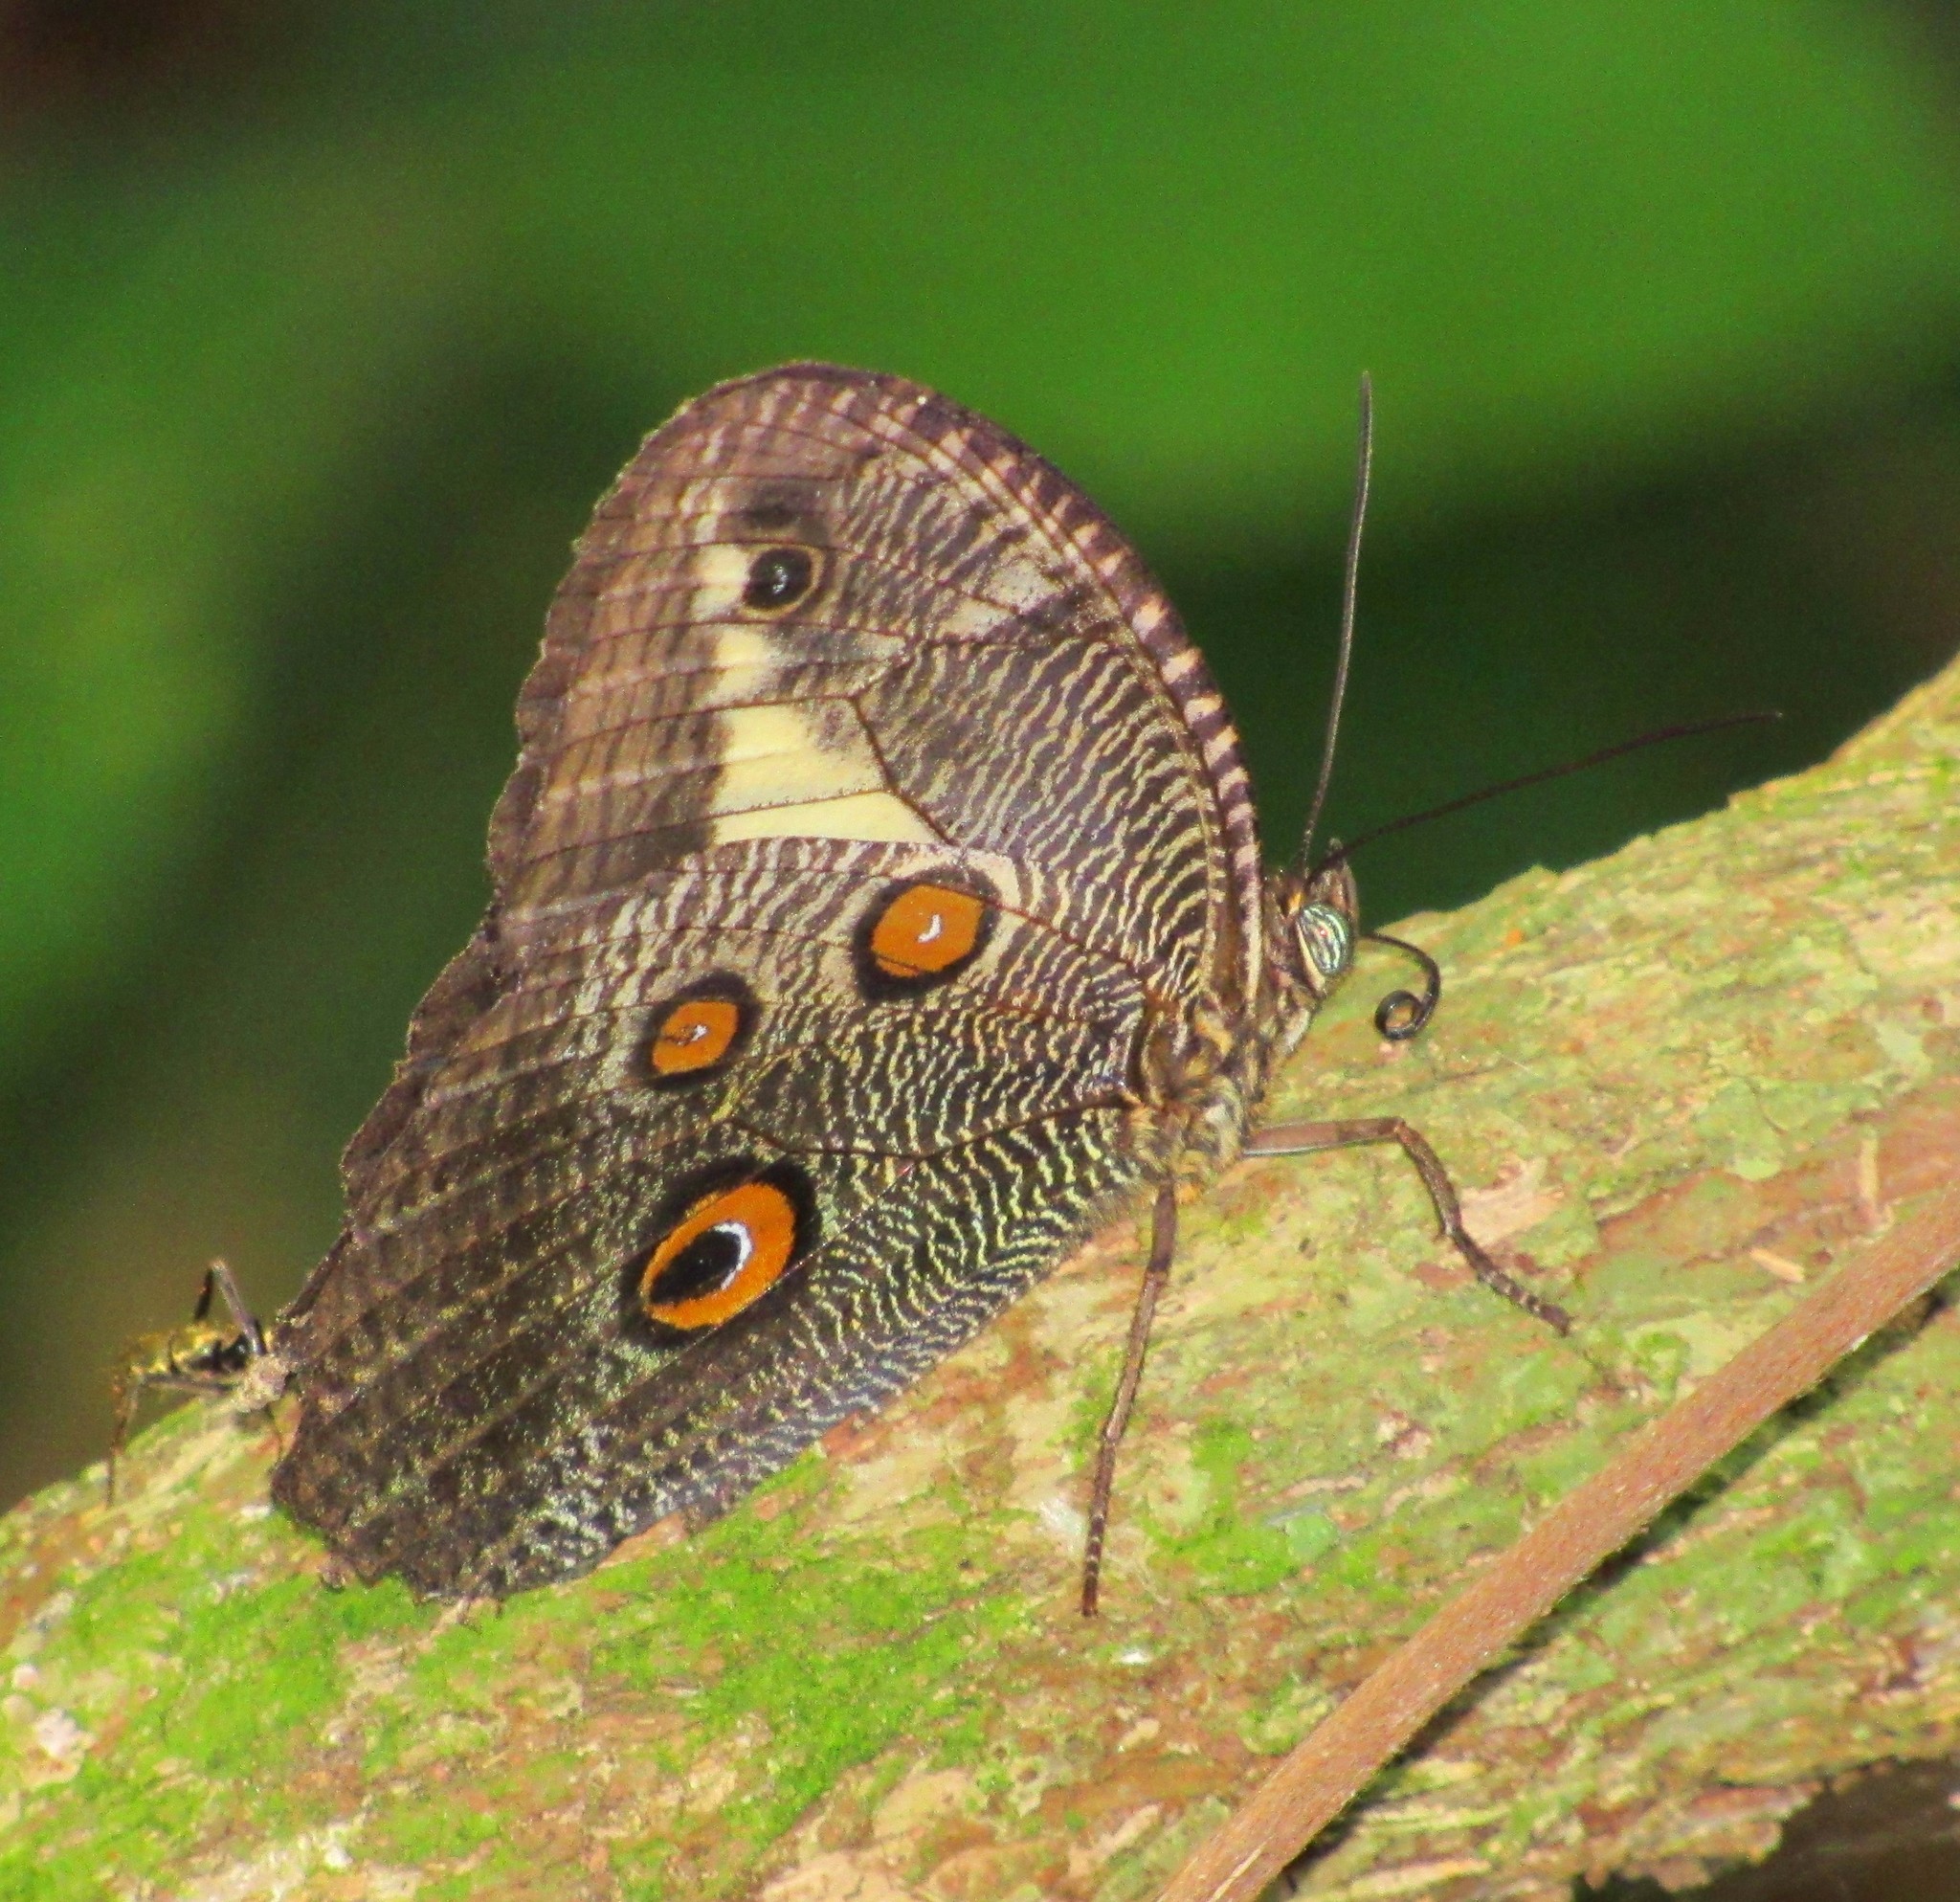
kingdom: Animalia
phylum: Arthropoda
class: Insecta
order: Lepidoptera
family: Nymphalidae
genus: Dasyophthalma
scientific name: Dasyophthalma creusa
